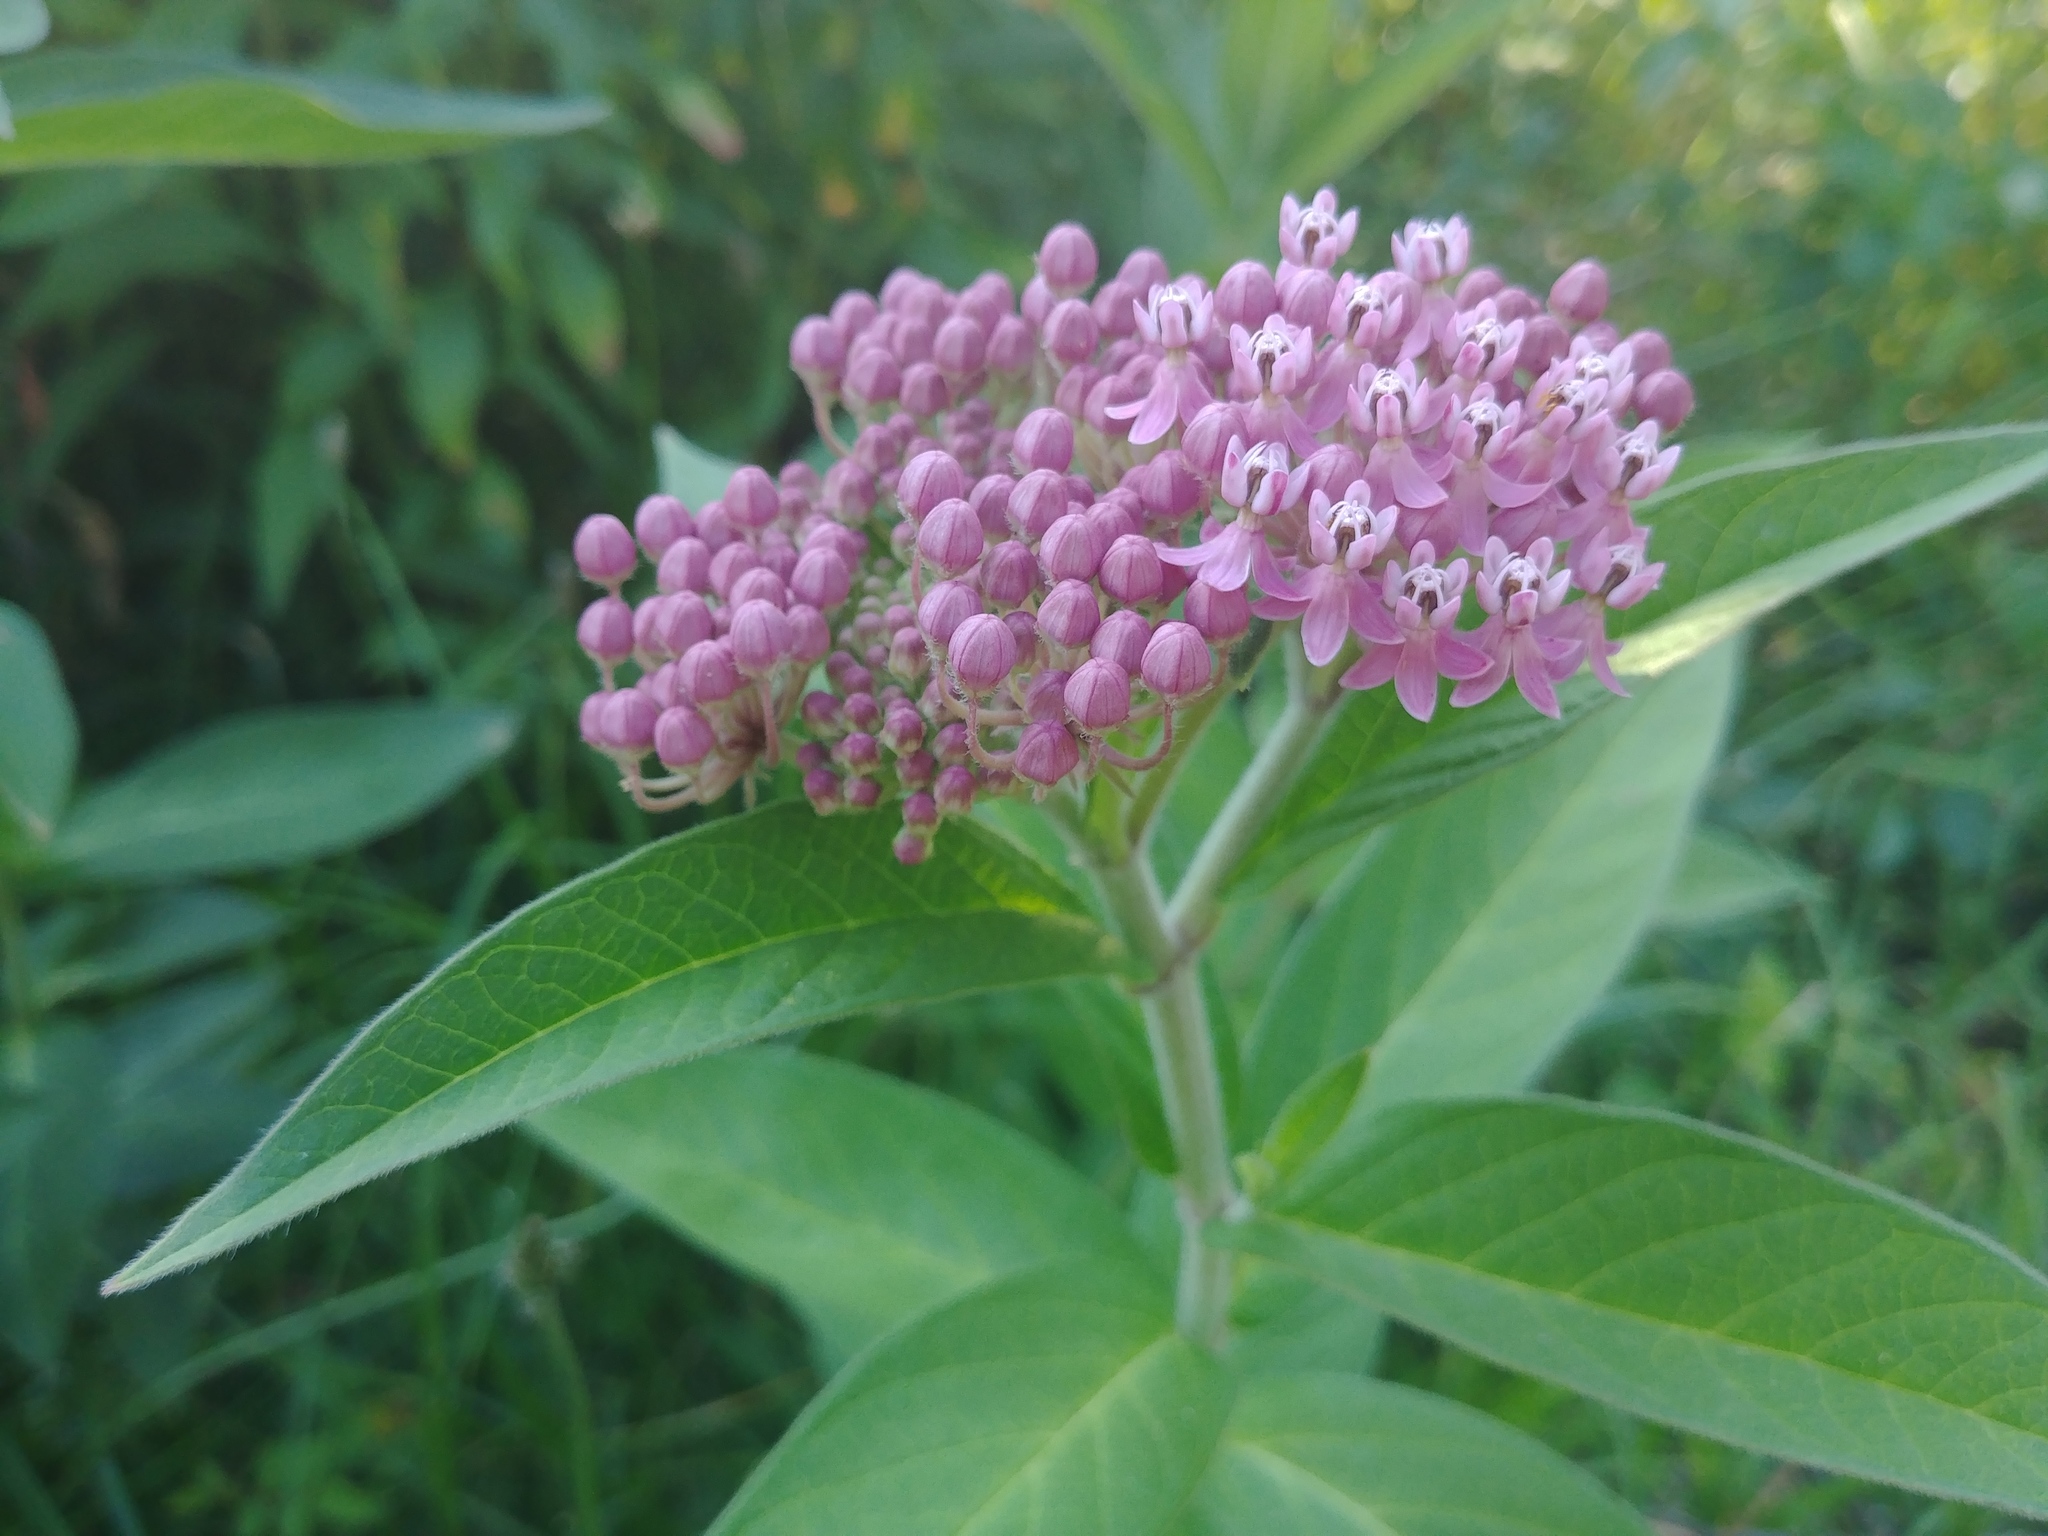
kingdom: Plantae
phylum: Tracheophyta
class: Magnoliopsida
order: Gentianales
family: Apocynaceae
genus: Asclepias
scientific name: Asclepias incarnata
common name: Swamp milkweed
